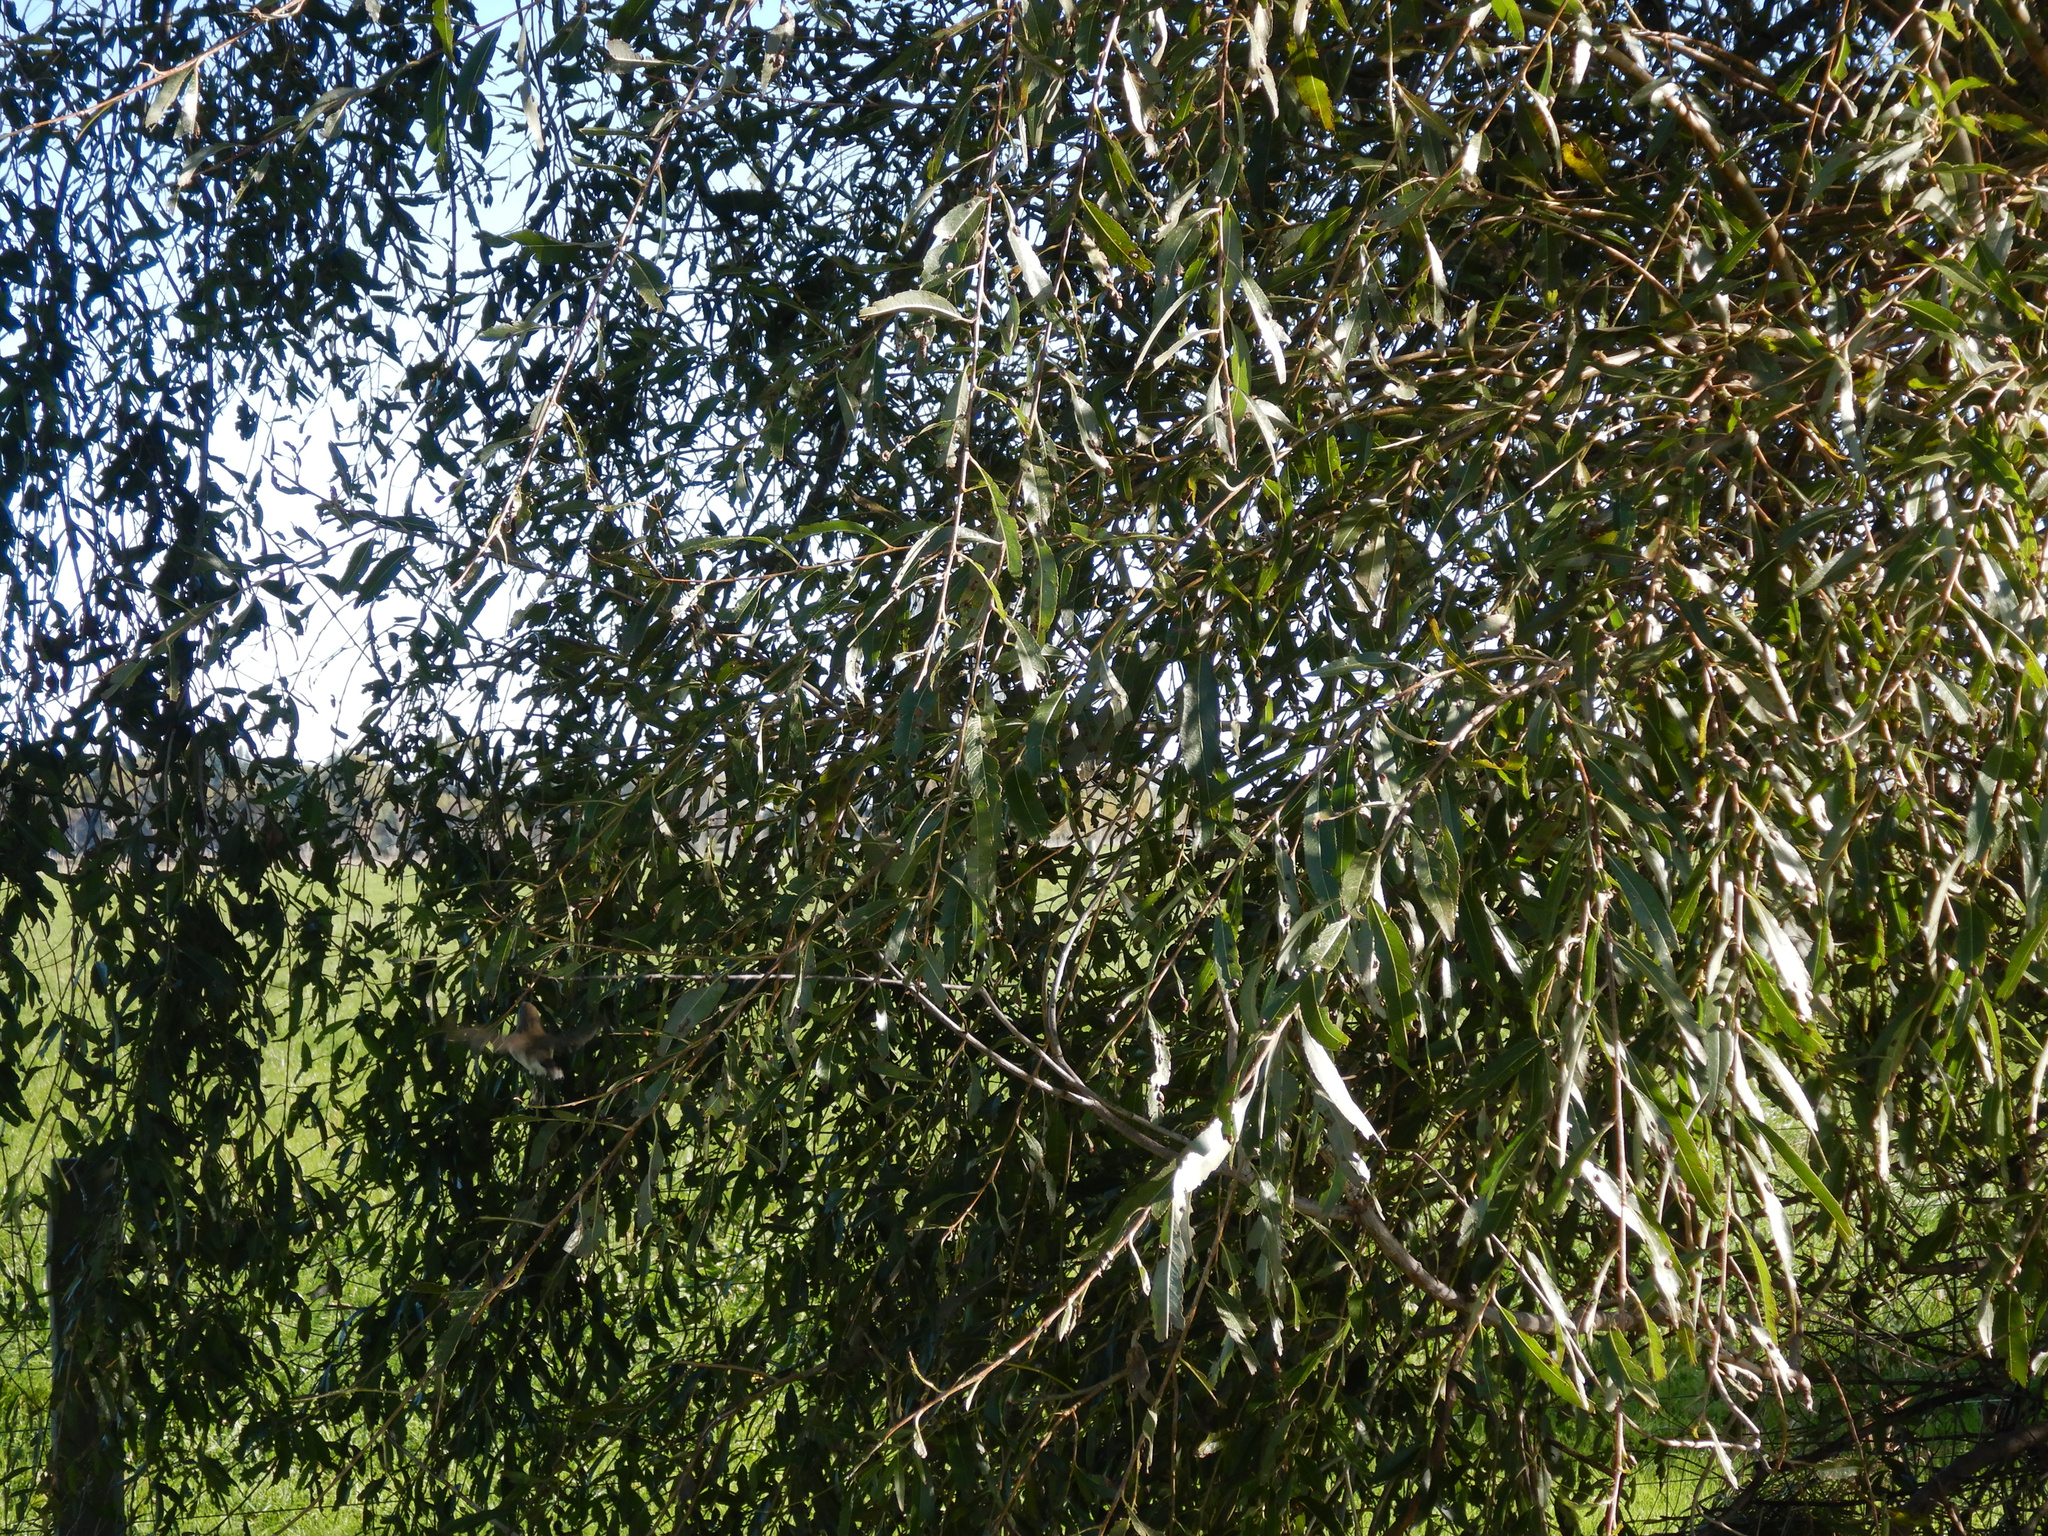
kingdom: Animalia
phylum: Chordata
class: Aves
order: Passeriformes
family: Acanthizidae
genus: Gerygone
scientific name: Gerygone igata
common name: Grey gerygone
